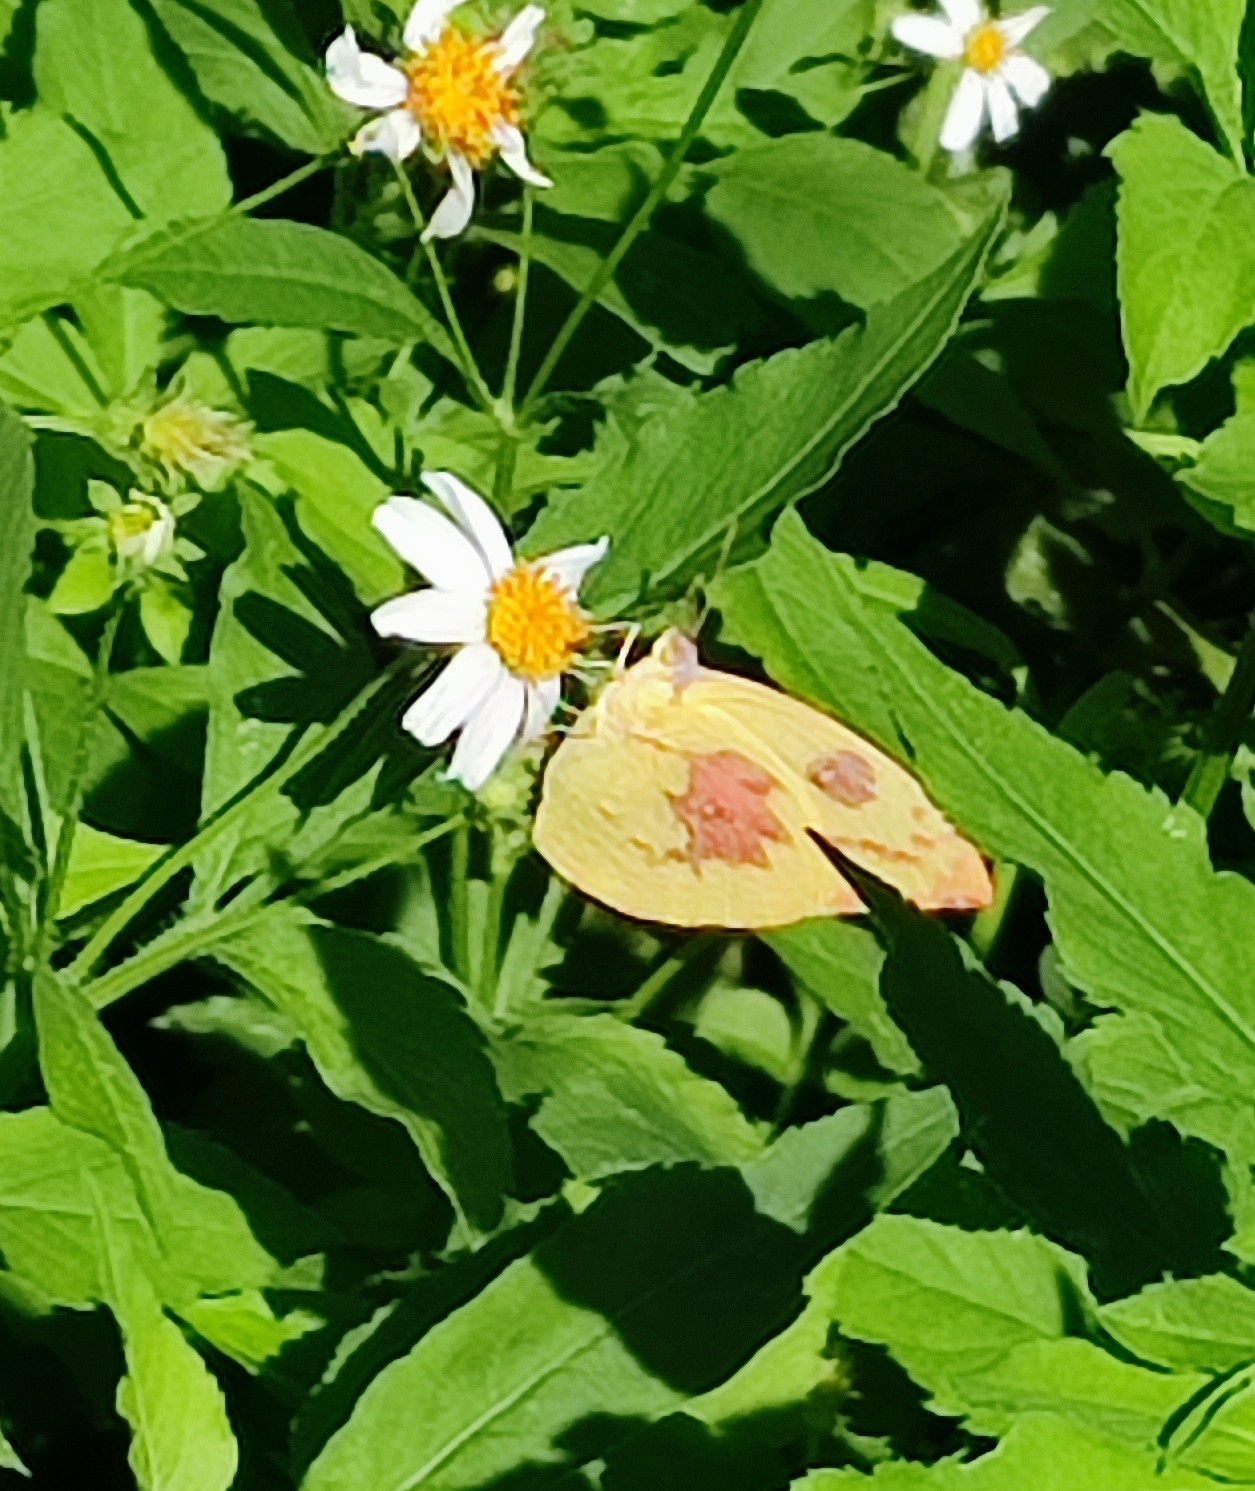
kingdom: Animalia
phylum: Arthropoda
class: Insecta
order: Lepidoptera
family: Pieridae
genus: Catopsilia
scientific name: Catopsilia pomona
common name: Common emigrant
